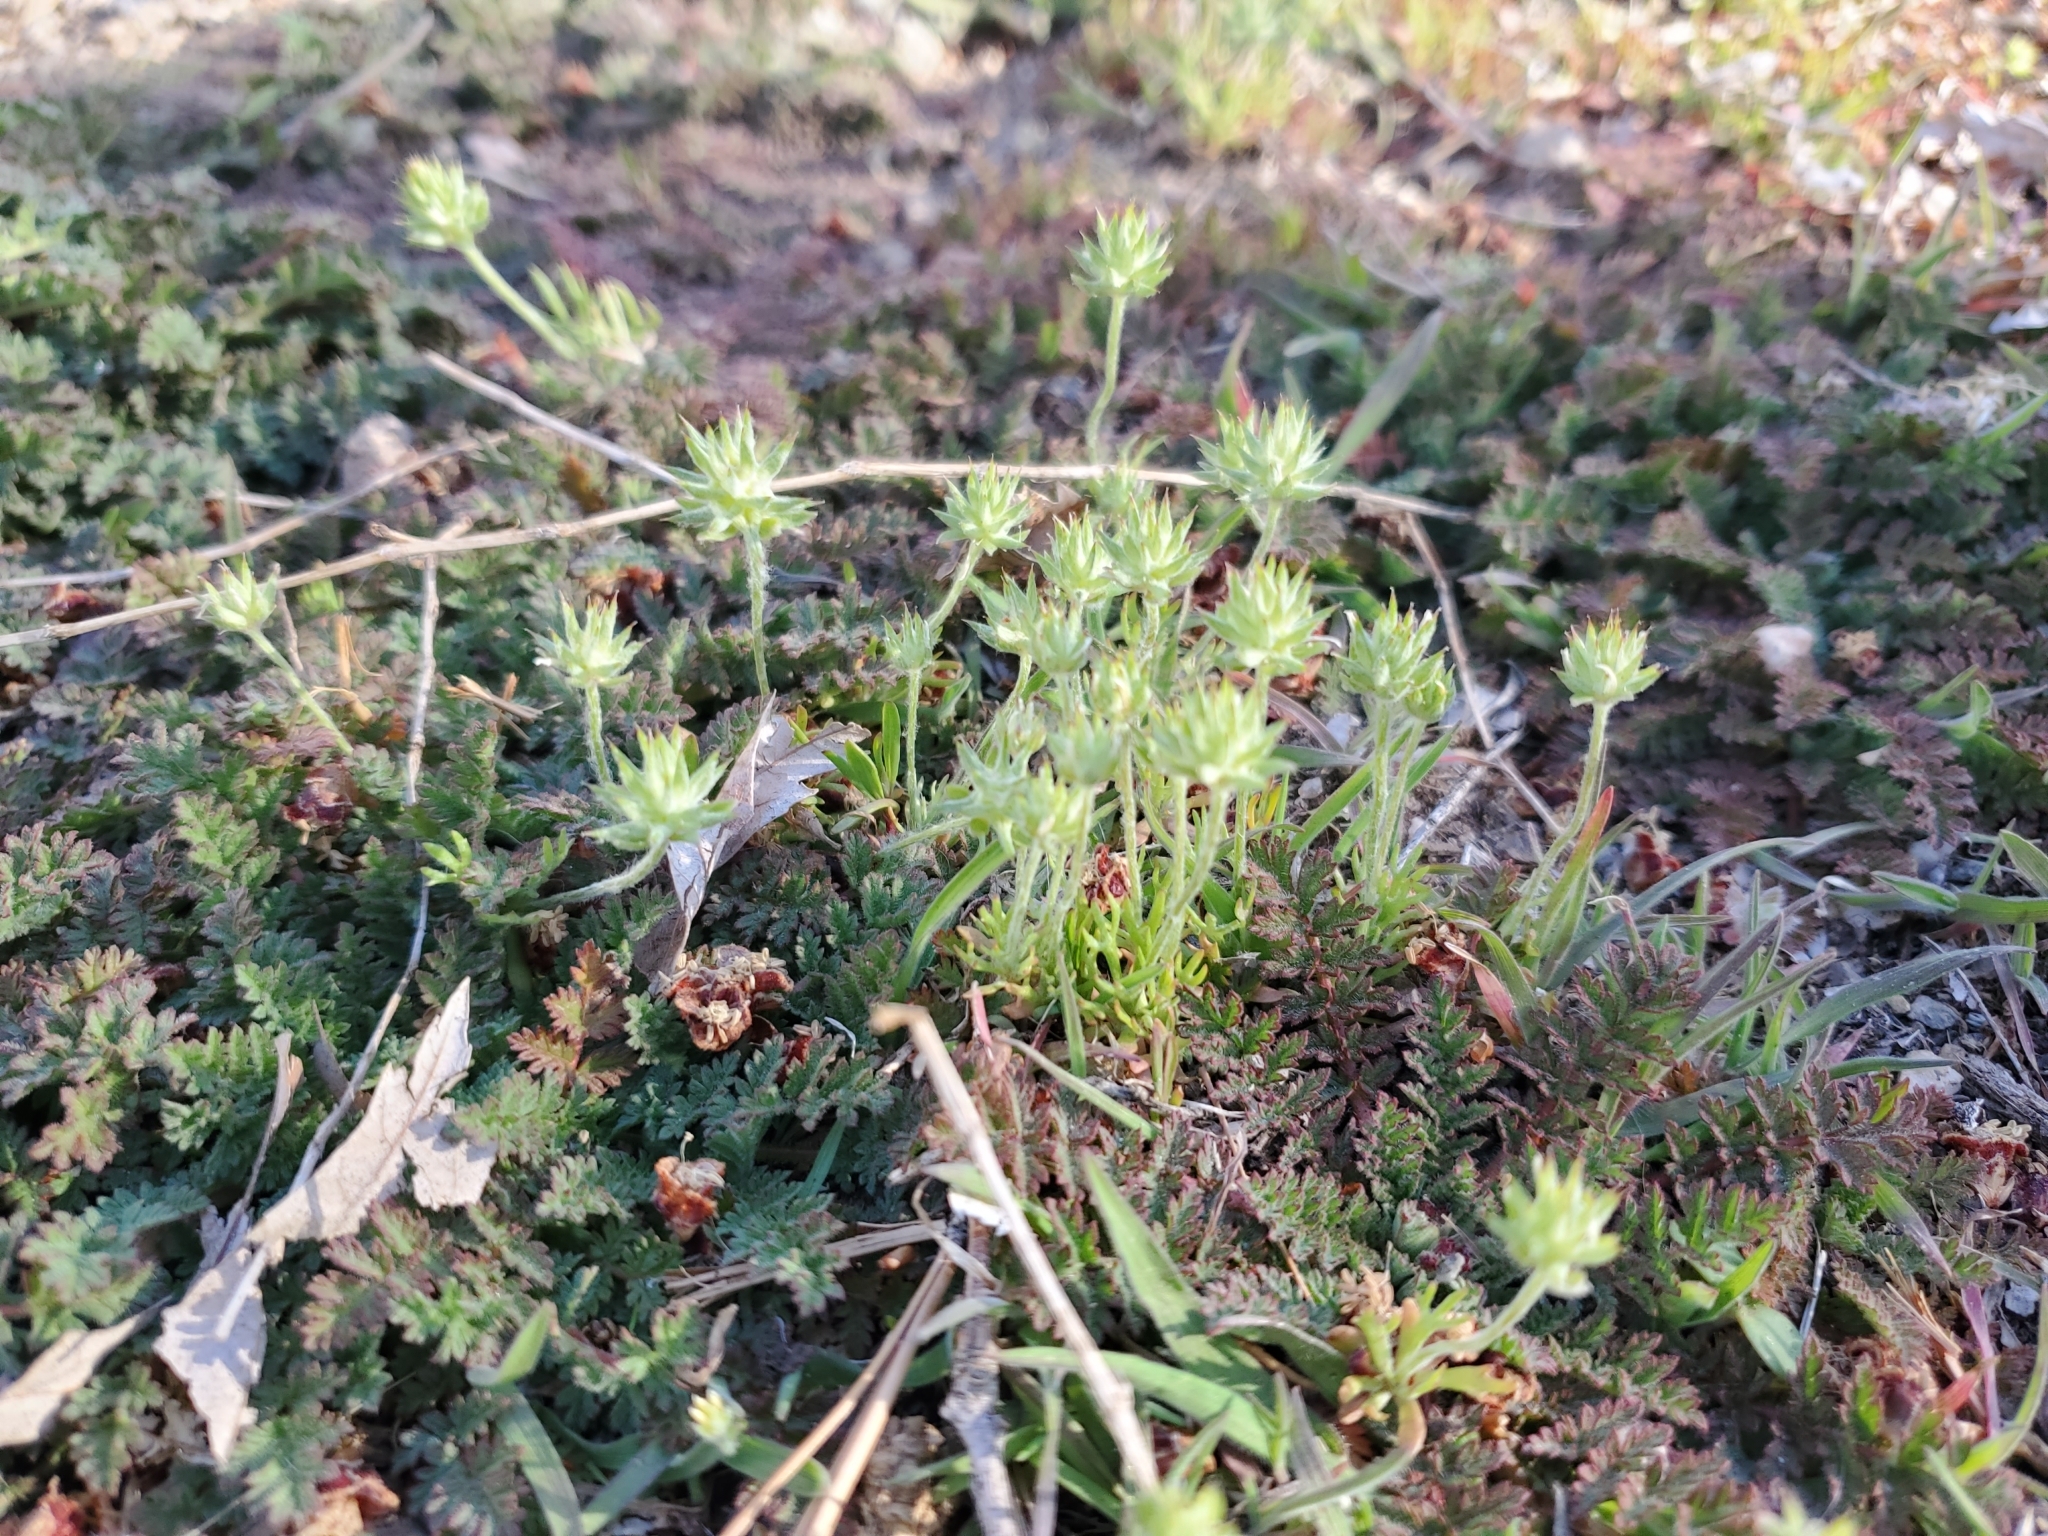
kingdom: Plantae
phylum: Tracheophyta
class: Magnoliopsida
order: Ranunculales
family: Ranunculaceae
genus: Ceratocephala
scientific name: Ceratocephala orthoceras
